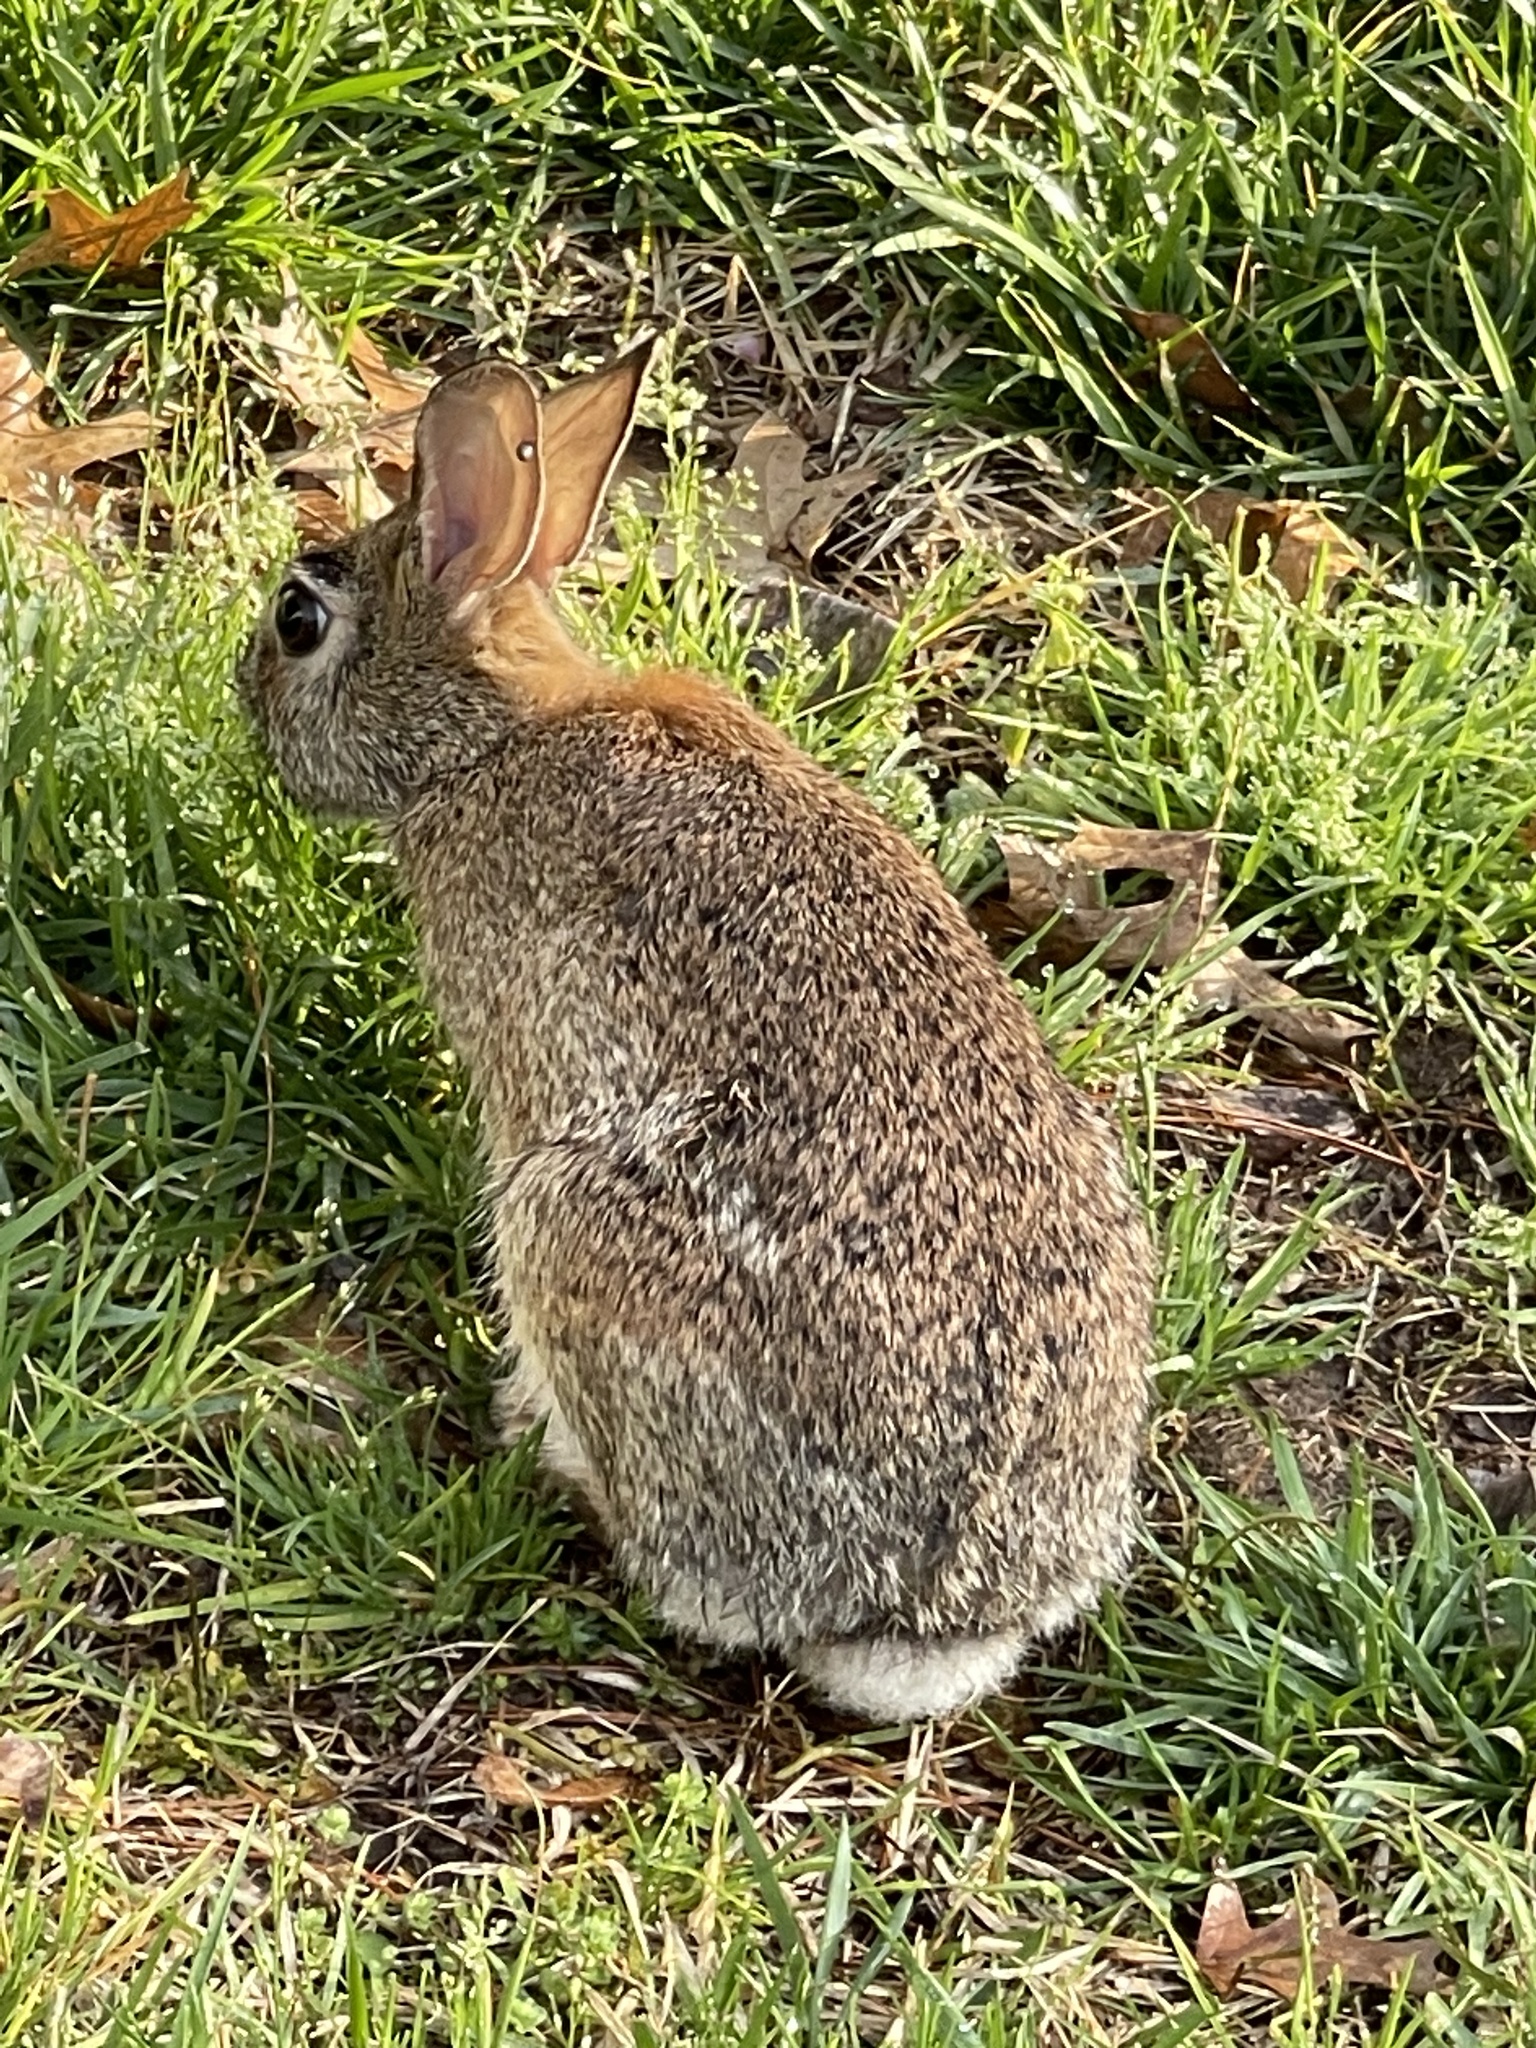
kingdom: Animalia
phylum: Chordata
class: Mammalia
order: Lagomorpha
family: Leporidae
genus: Sylvilagus
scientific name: Sylvilagus floridanus
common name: Eastern cottontail
